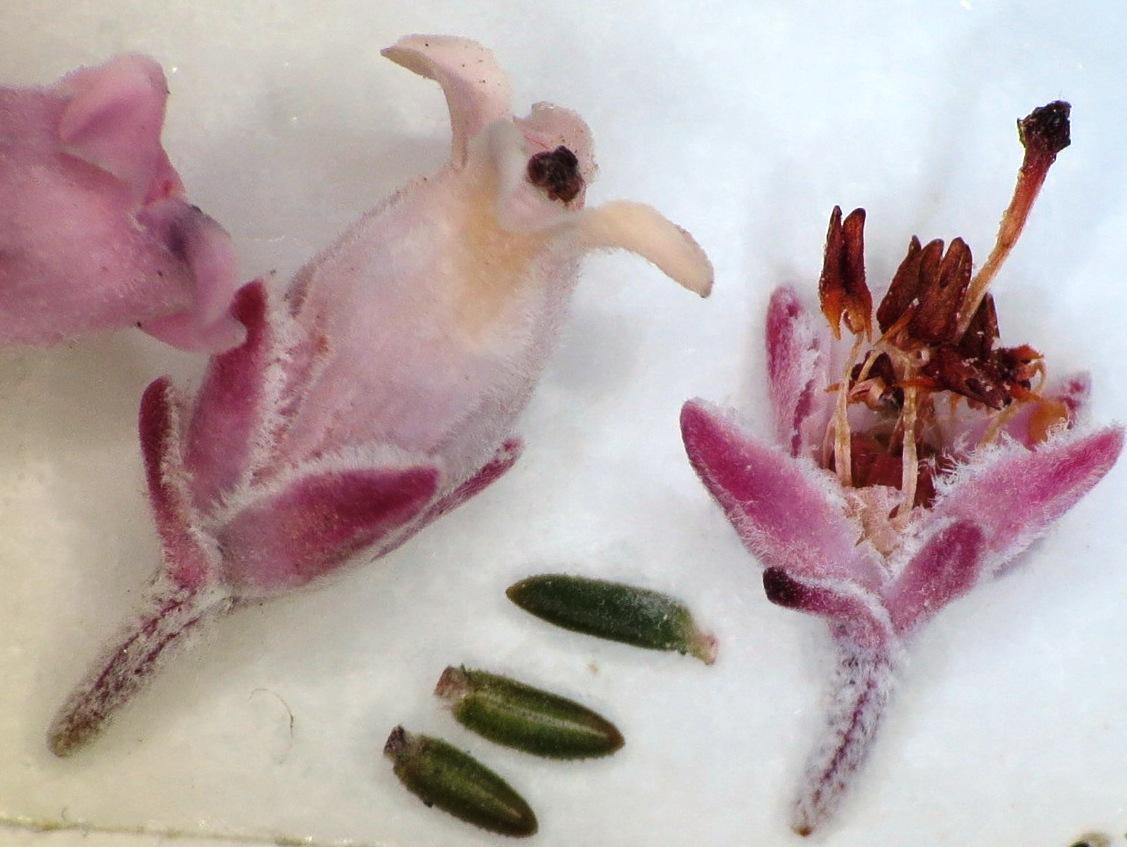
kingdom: Plantae
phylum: Tracheophyta
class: Magnoliopsida
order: Ericales
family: Ericaceae
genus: Erica
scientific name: Erica modesta
